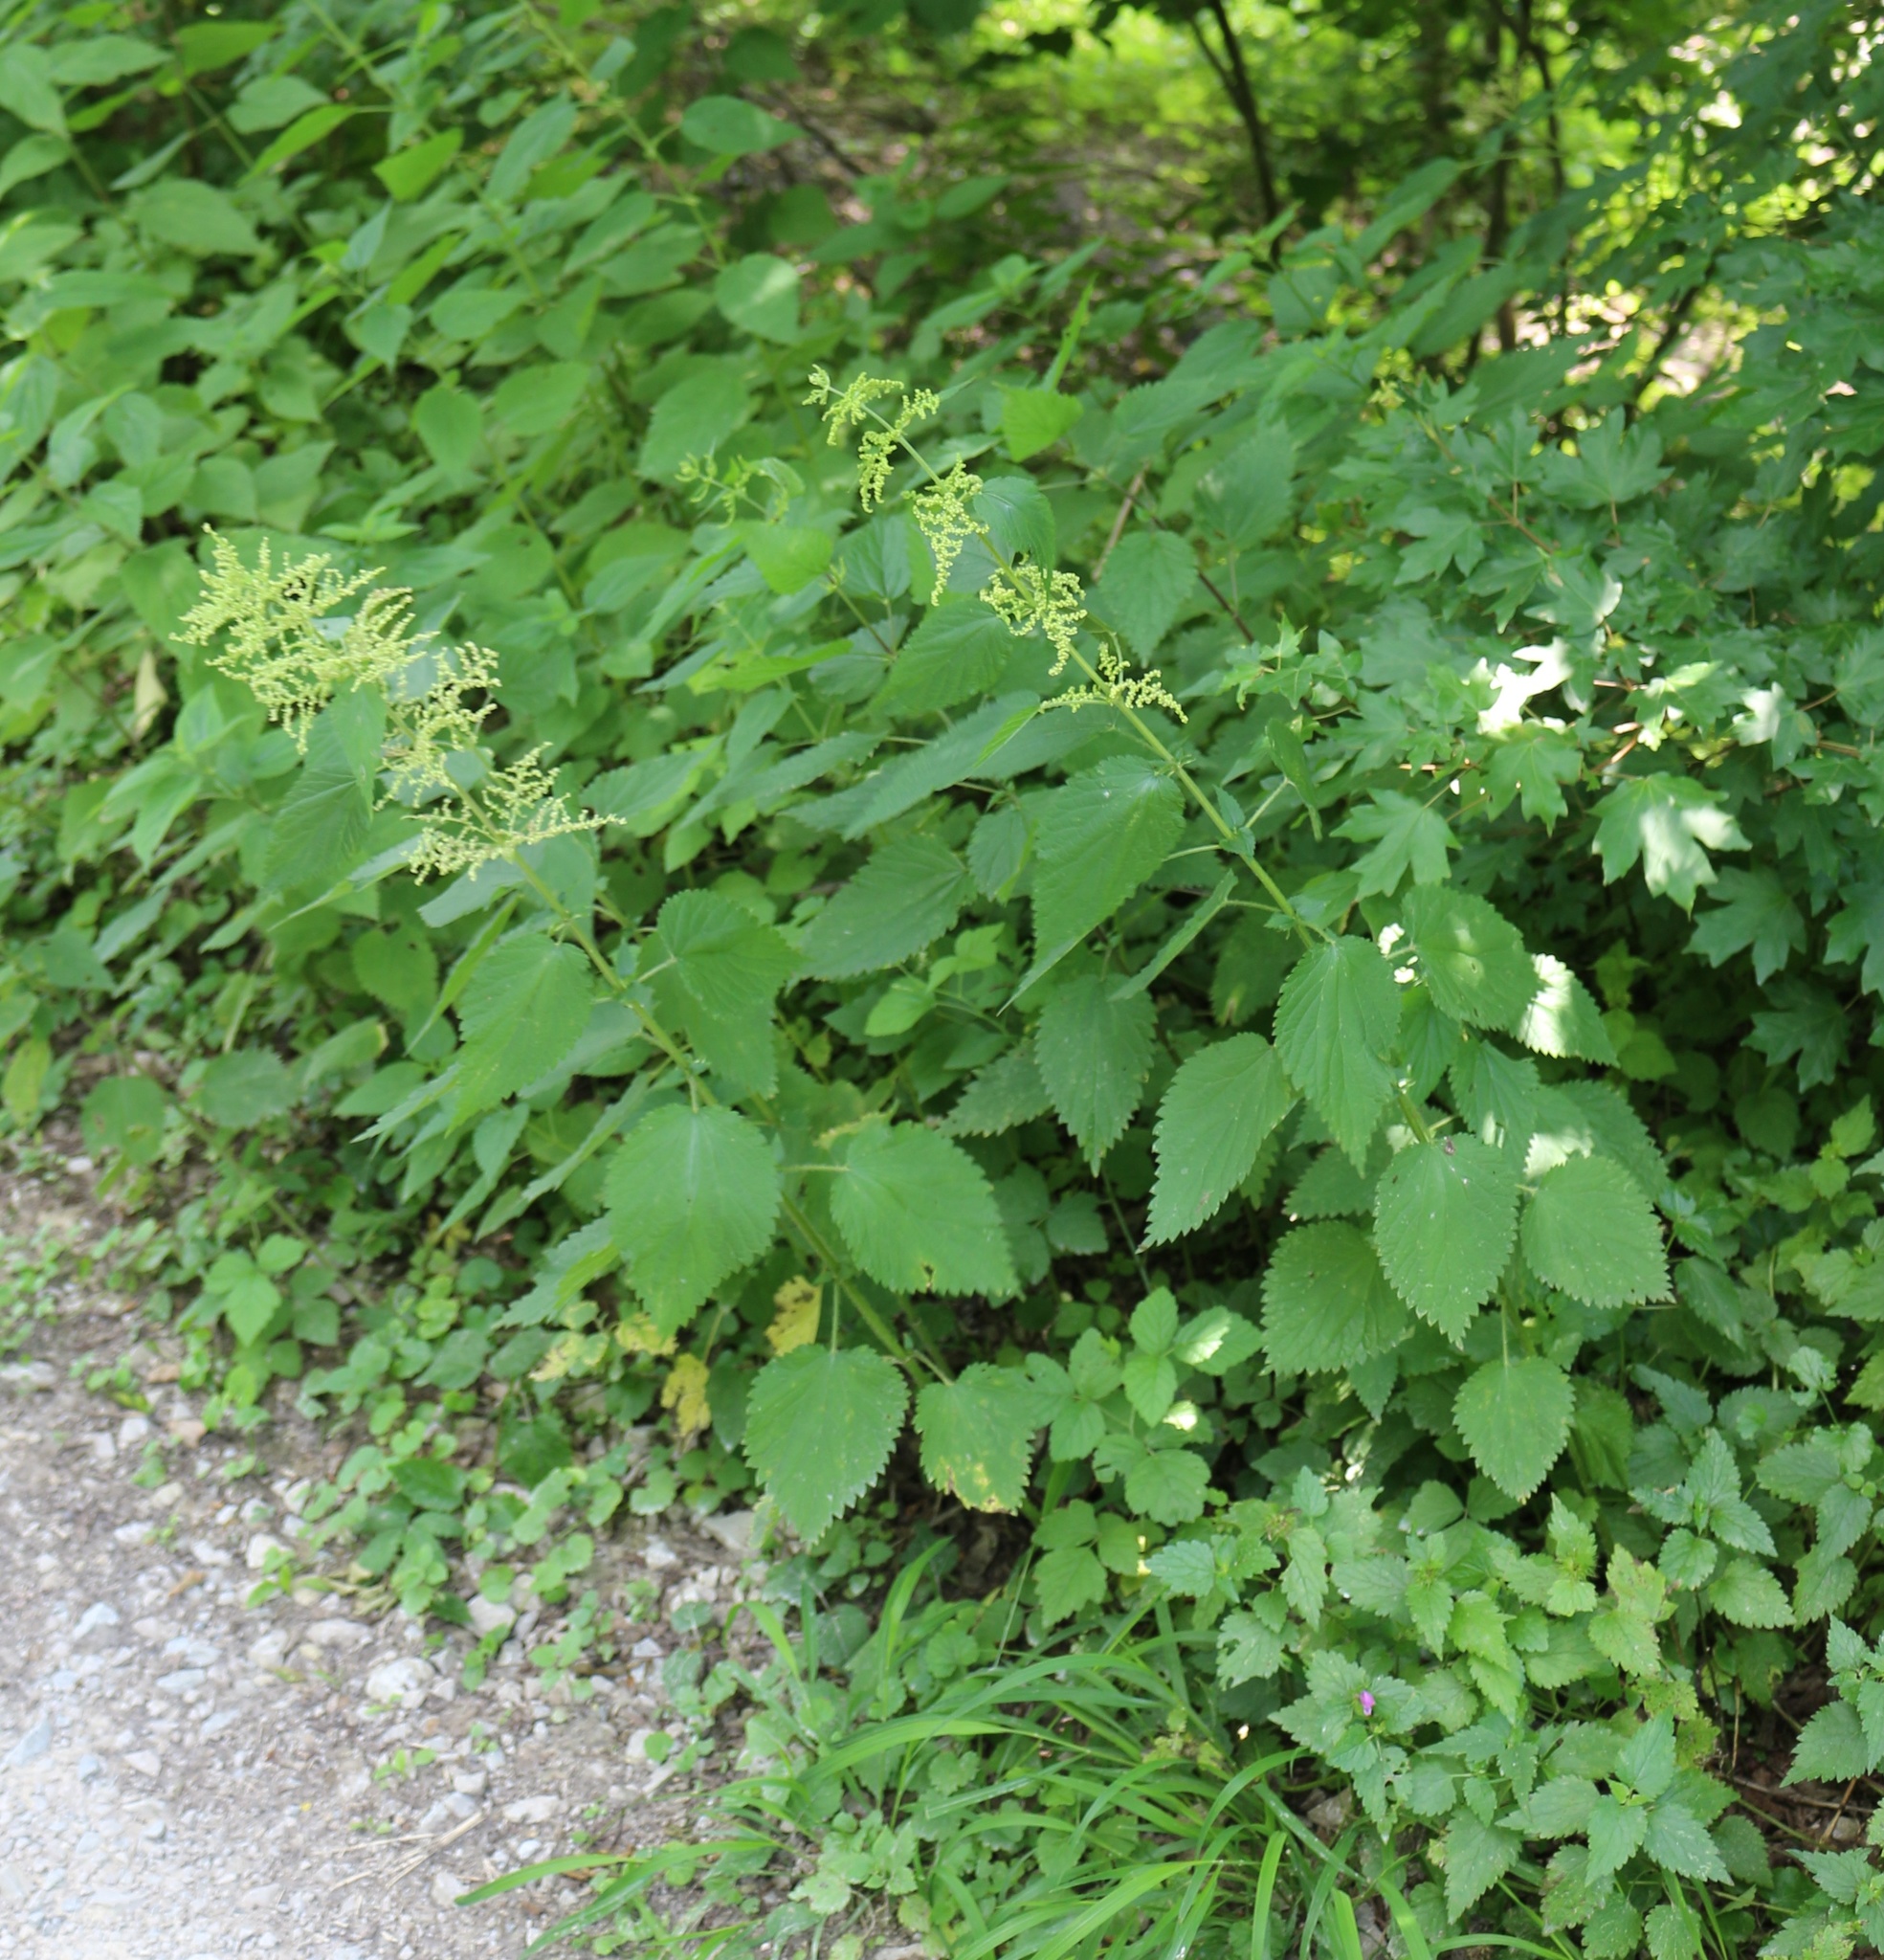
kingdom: Plantae
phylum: Tracheophyta
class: Magnoliopsida
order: Rosales
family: Urticaceae
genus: Urtica
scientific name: Urtica dioica
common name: Common nettle
